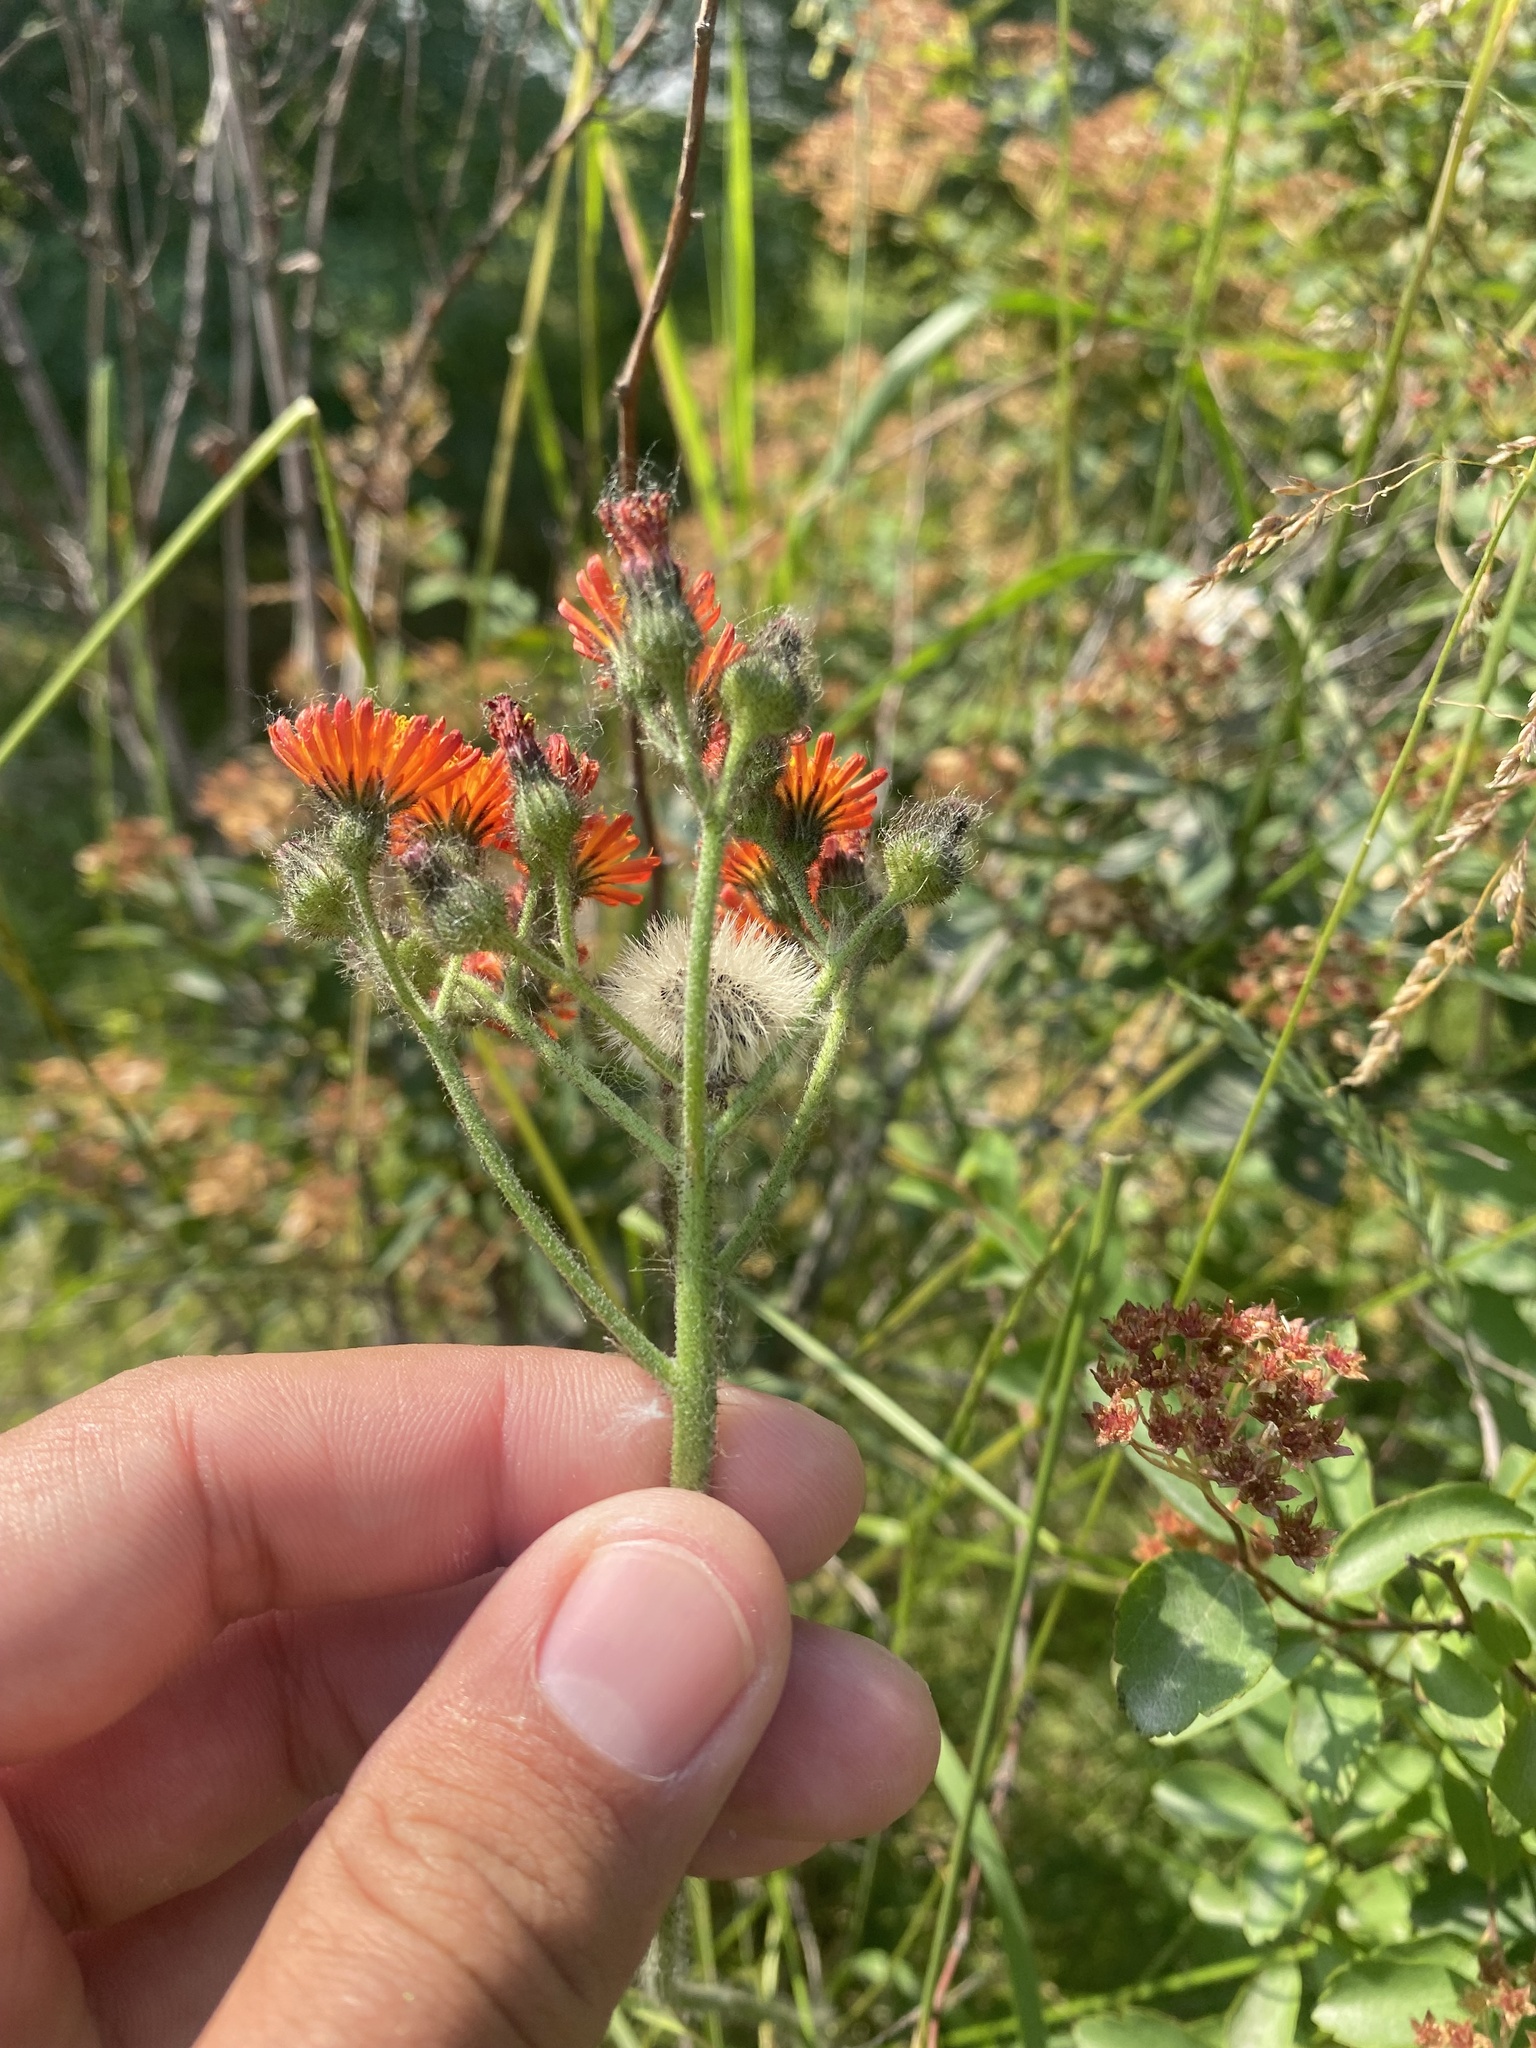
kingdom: Plantae
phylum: Tracheophyta
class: Magnoliopsida
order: Asterales
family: Asteraceae
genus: Pilosella
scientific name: Pilosella aurantiaca
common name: Fox-and-cubs
